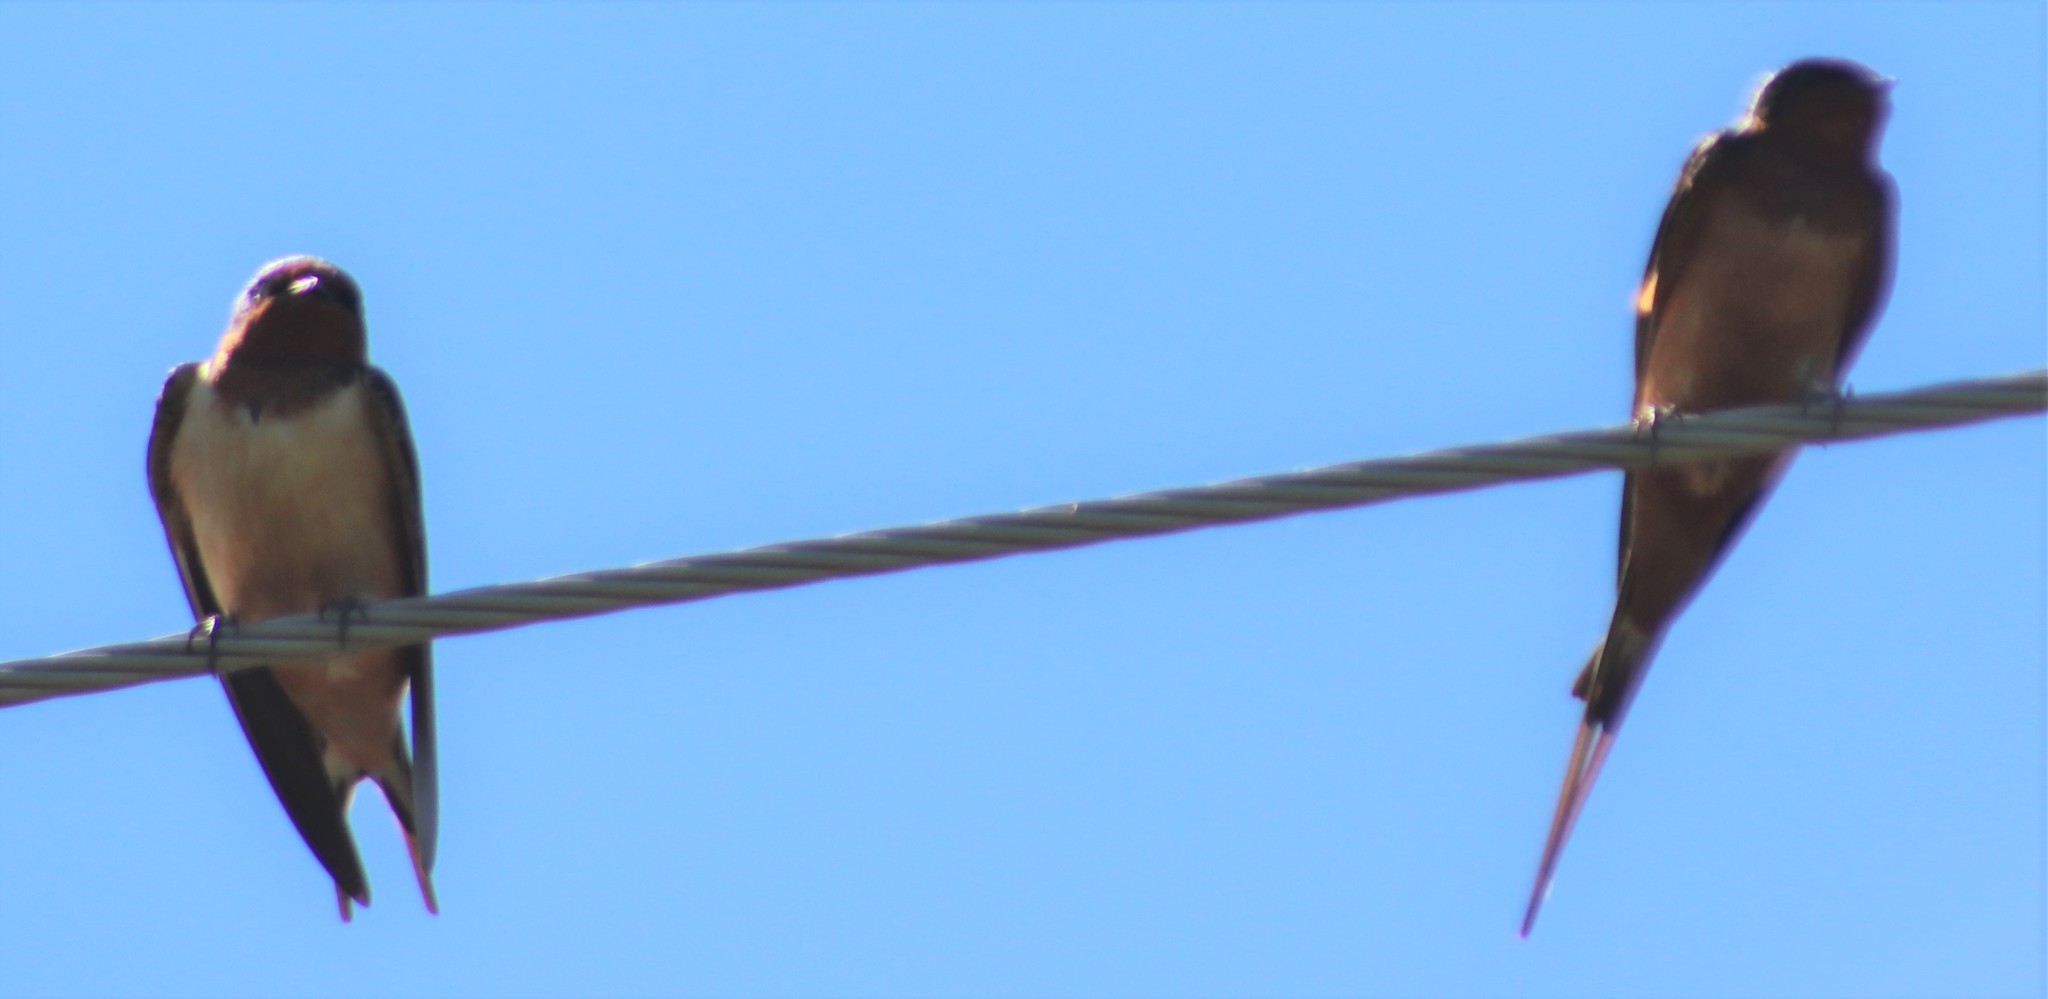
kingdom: Animalia
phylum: Chordata
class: Aves
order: Passeriformes
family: Hirundinidae
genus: Hirundo
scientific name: Hirundo rustica
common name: Barn swallow
